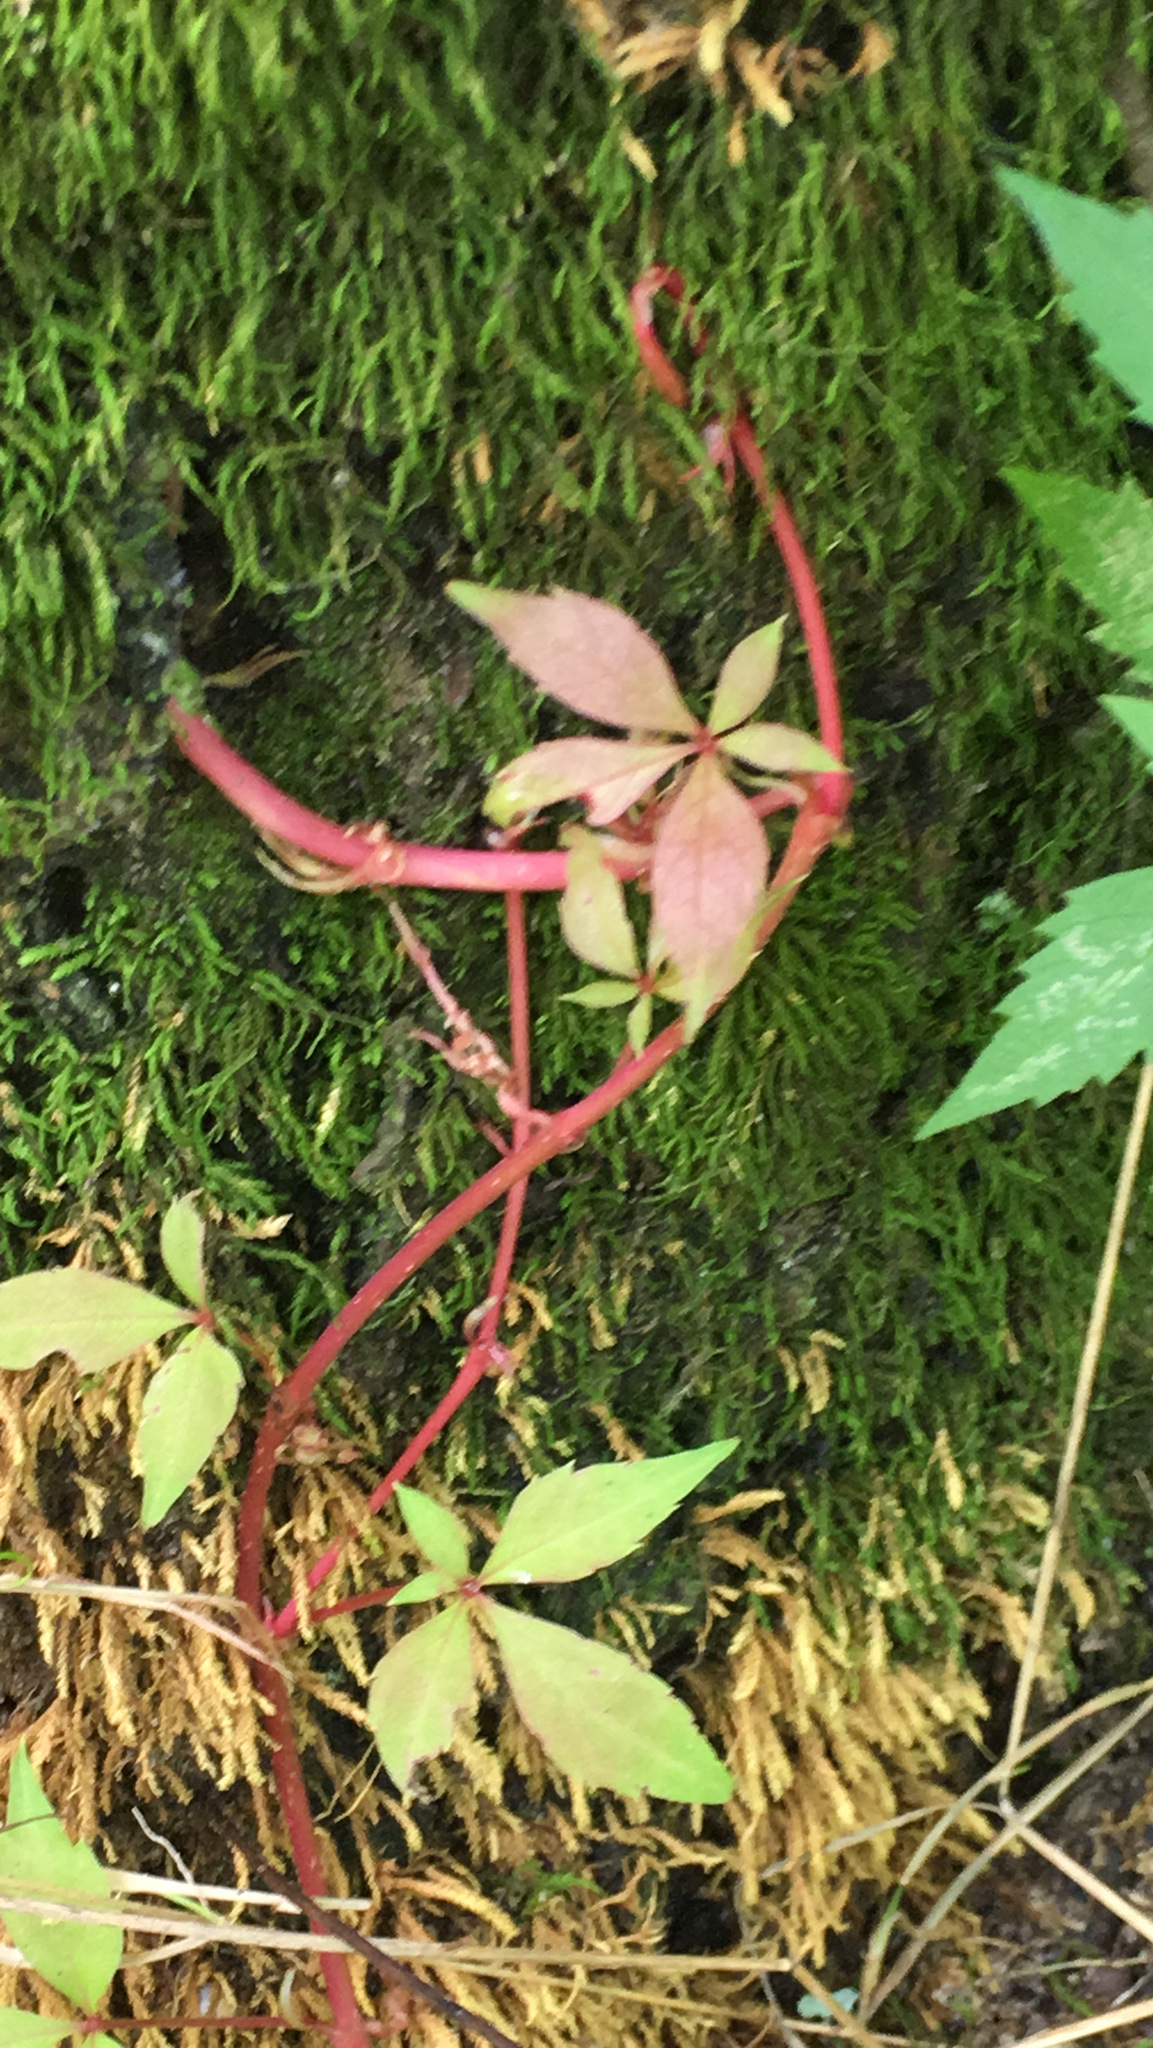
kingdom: Plantae
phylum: Tracheophyta
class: Magnoliopsida
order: Vitales
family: Vitaceae
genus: Parthenocissus
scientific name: Parthenocissus quinquefolia
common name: Virginia-creeper
